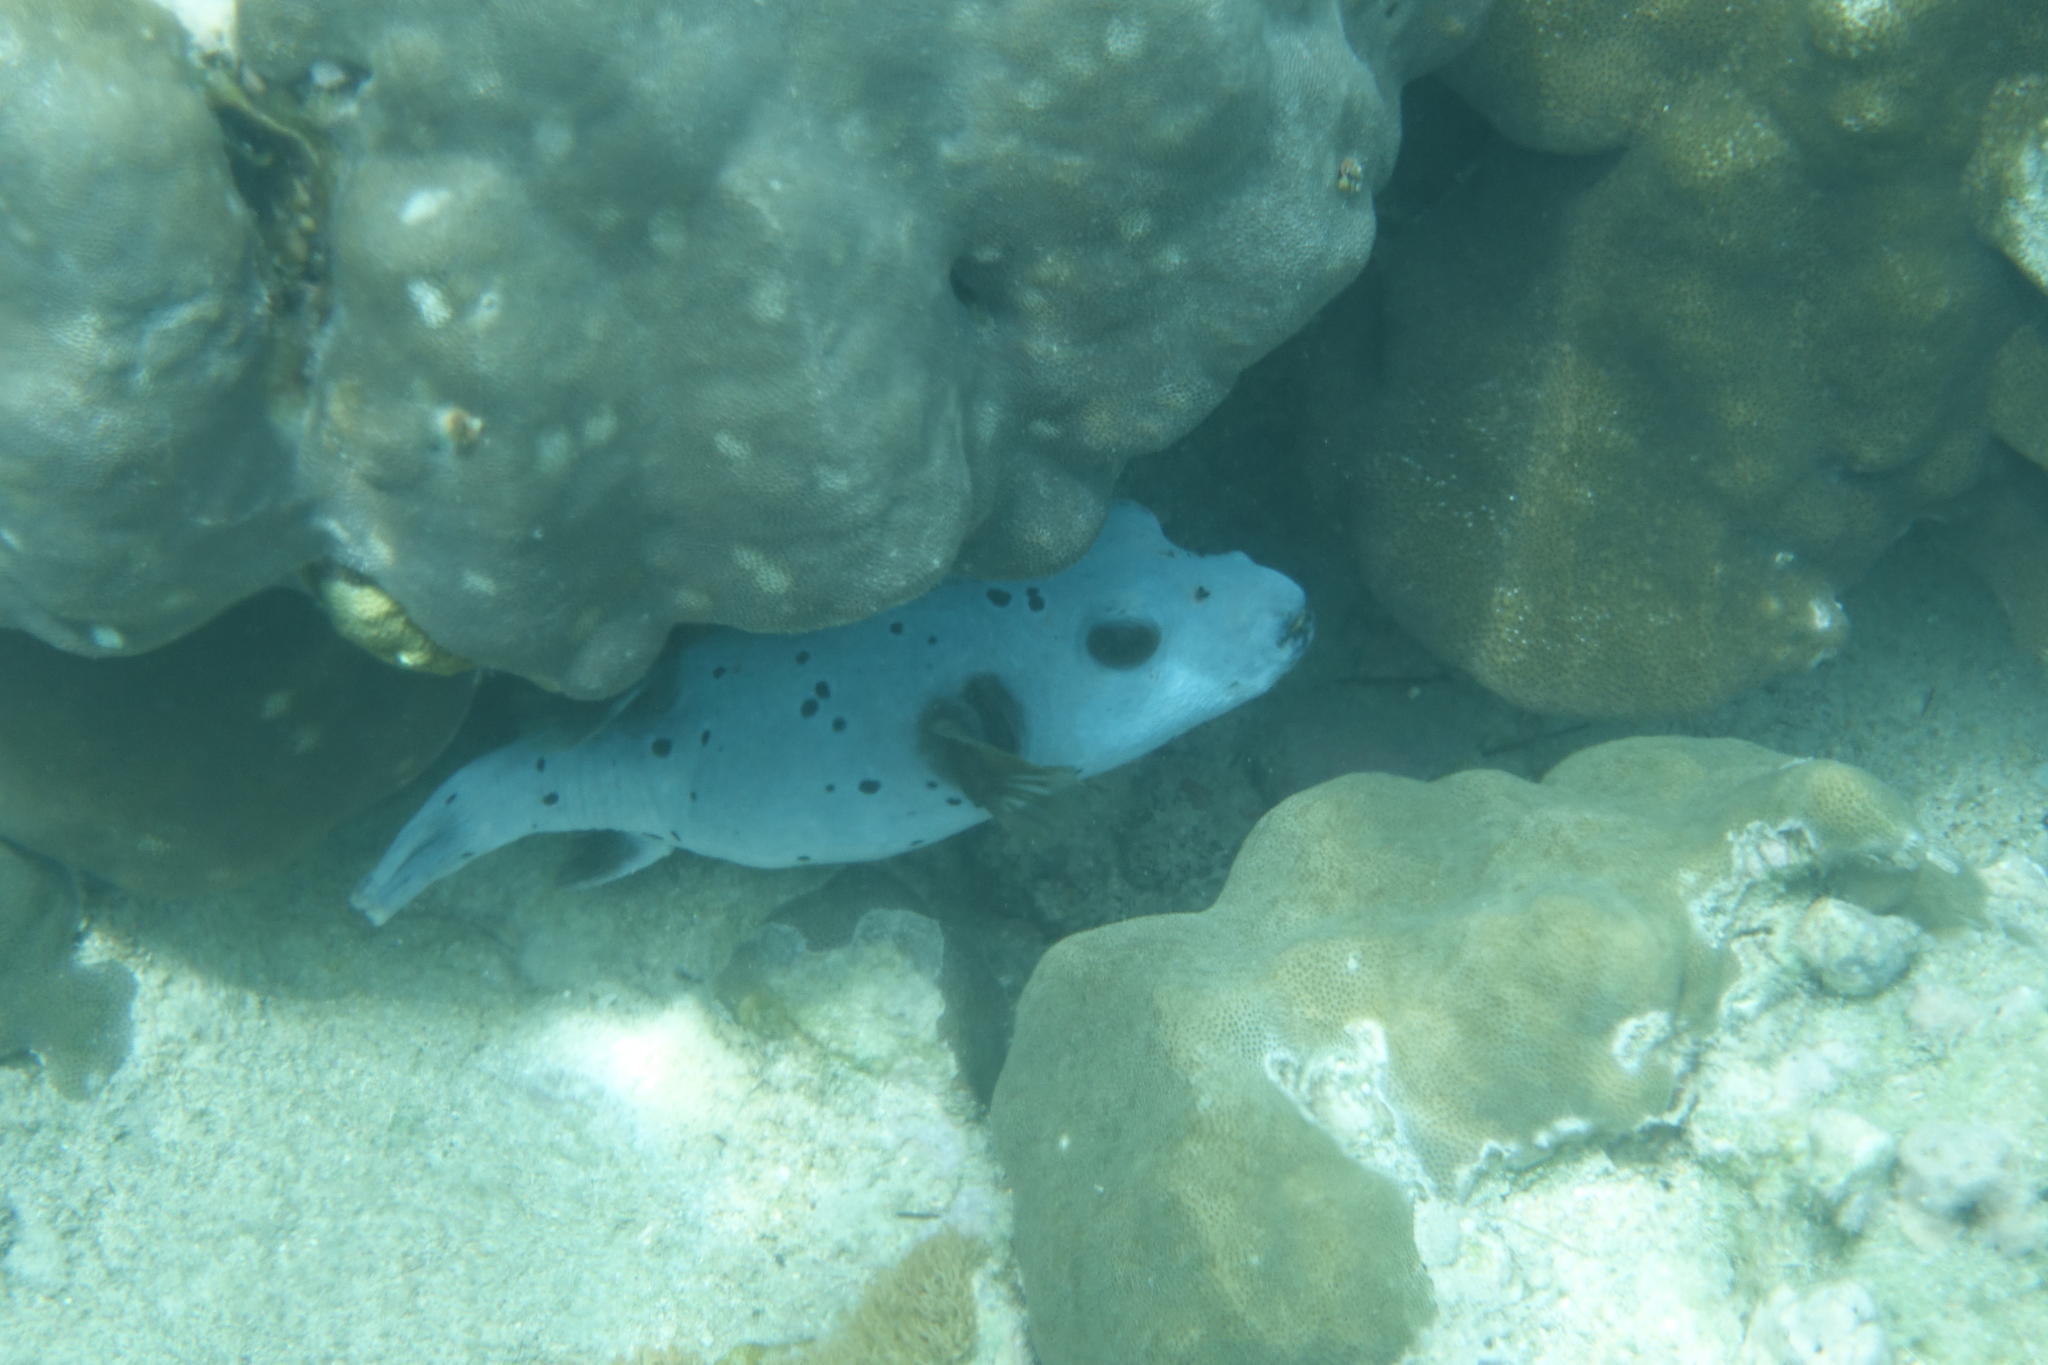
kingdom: Animalia
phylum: Chordata
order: Tetraodontiformes
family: Tetraodontidae
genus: Arothron
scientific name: Arothron nigropunctatus
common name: Black spotted blow fish
